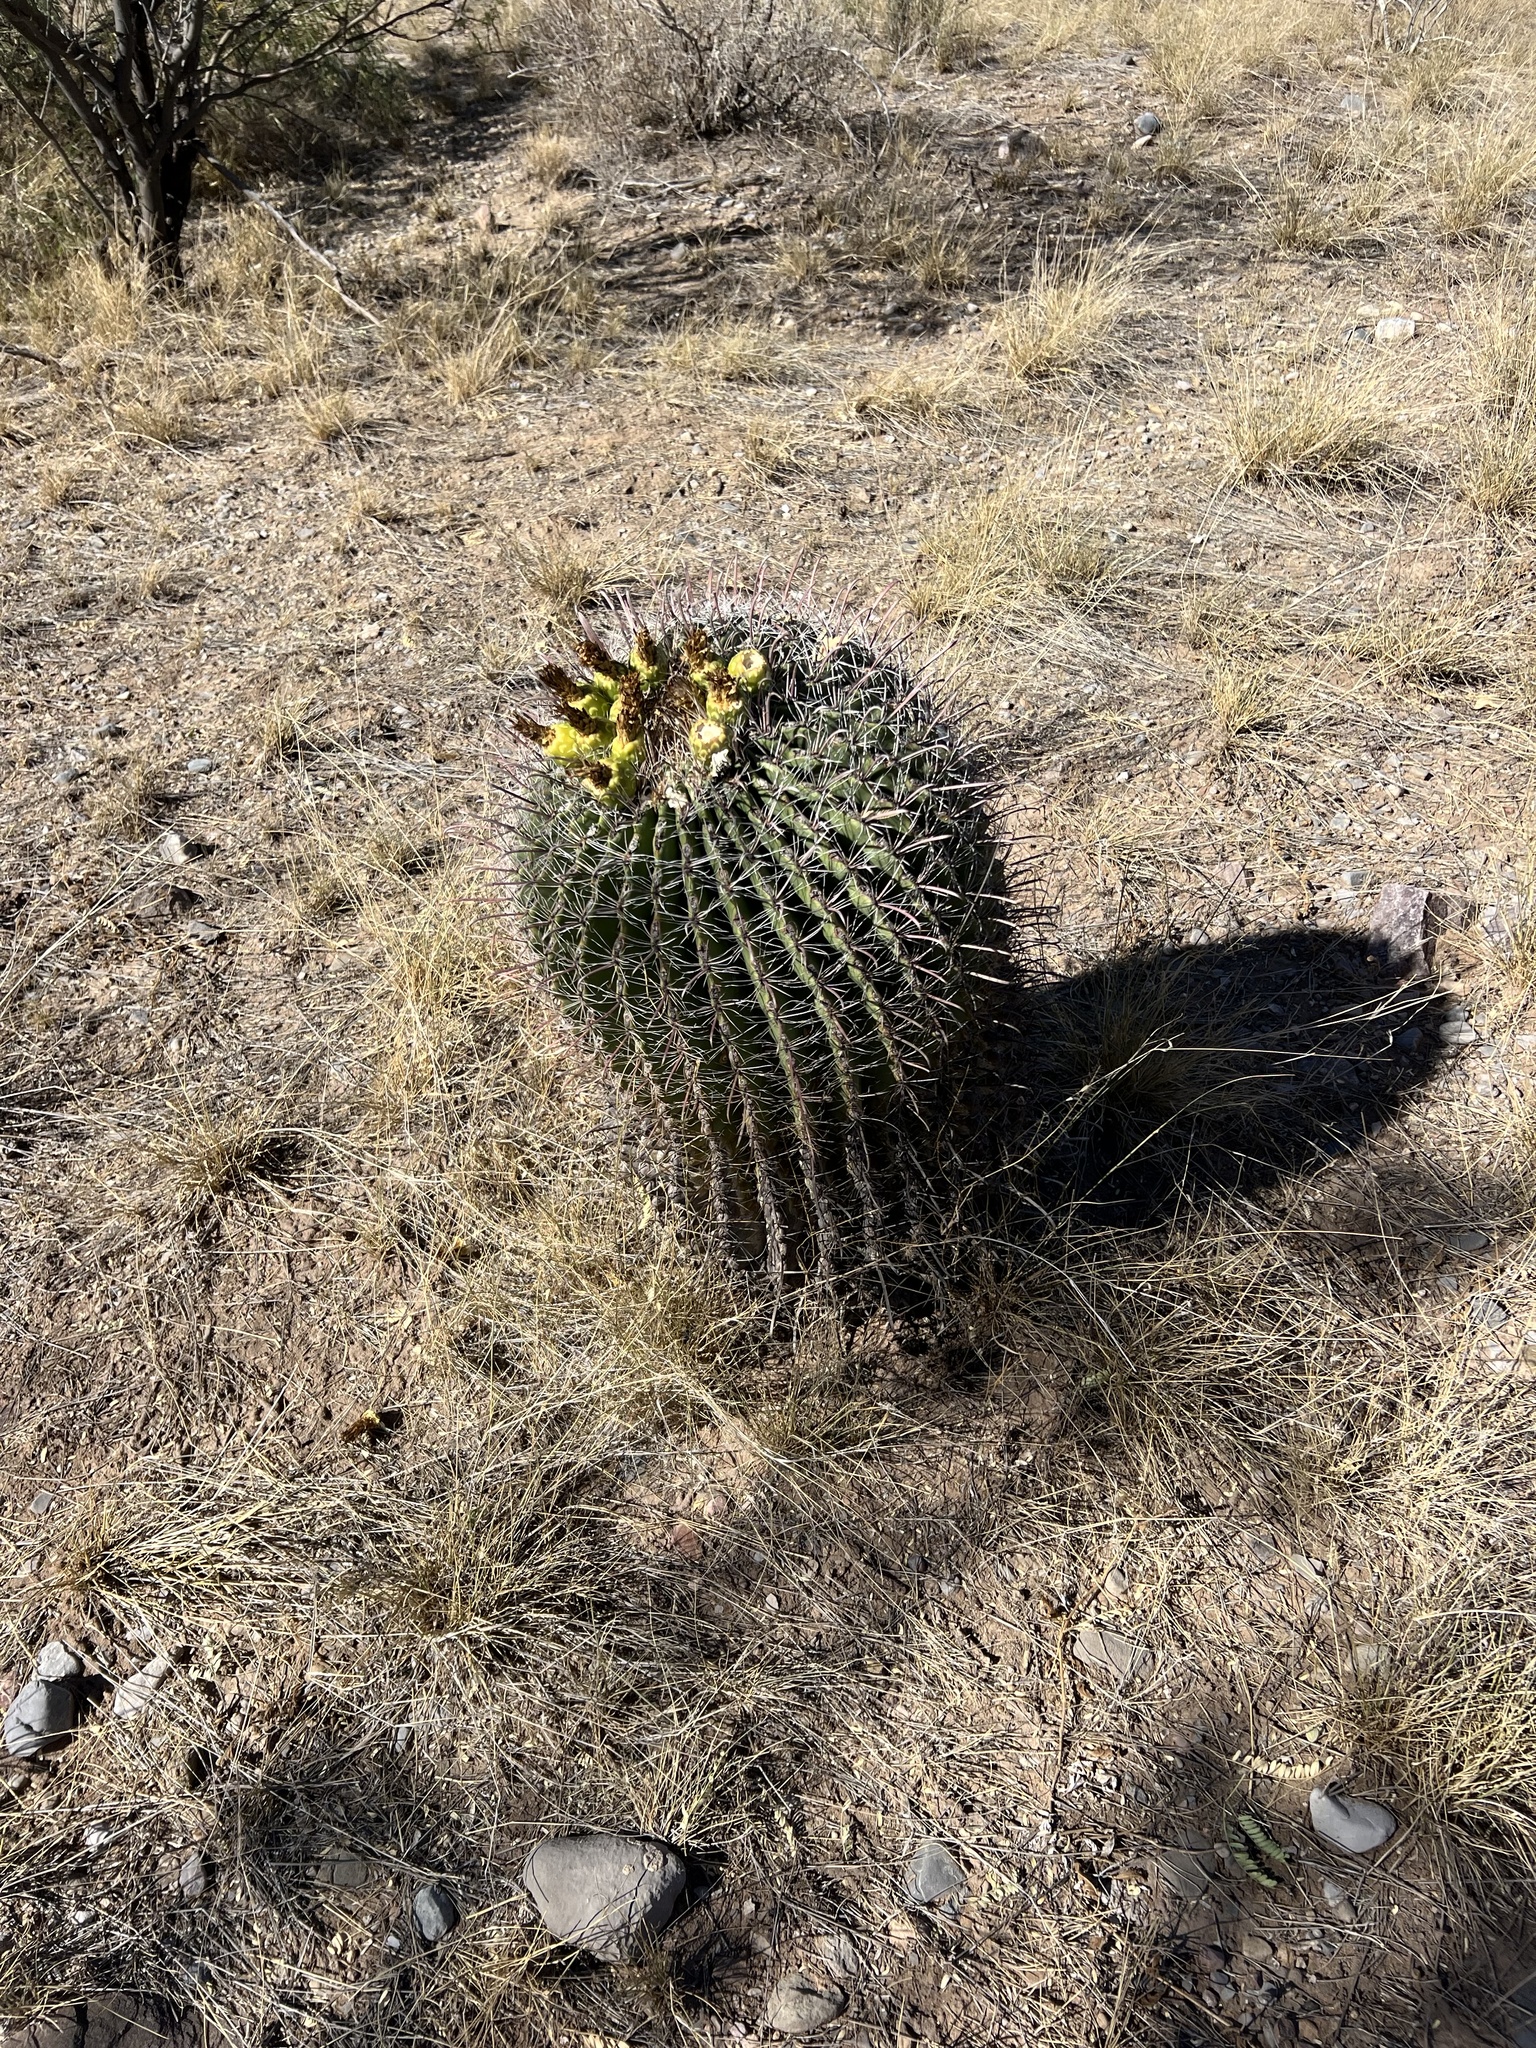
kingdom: Plantae
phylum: Tracheophyta
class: Magnoliopsida
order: Caryophyllales
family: Cactaceae
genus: Ferocactus
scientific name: Ferocactus wislizeni
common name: Candy barrel cactus
